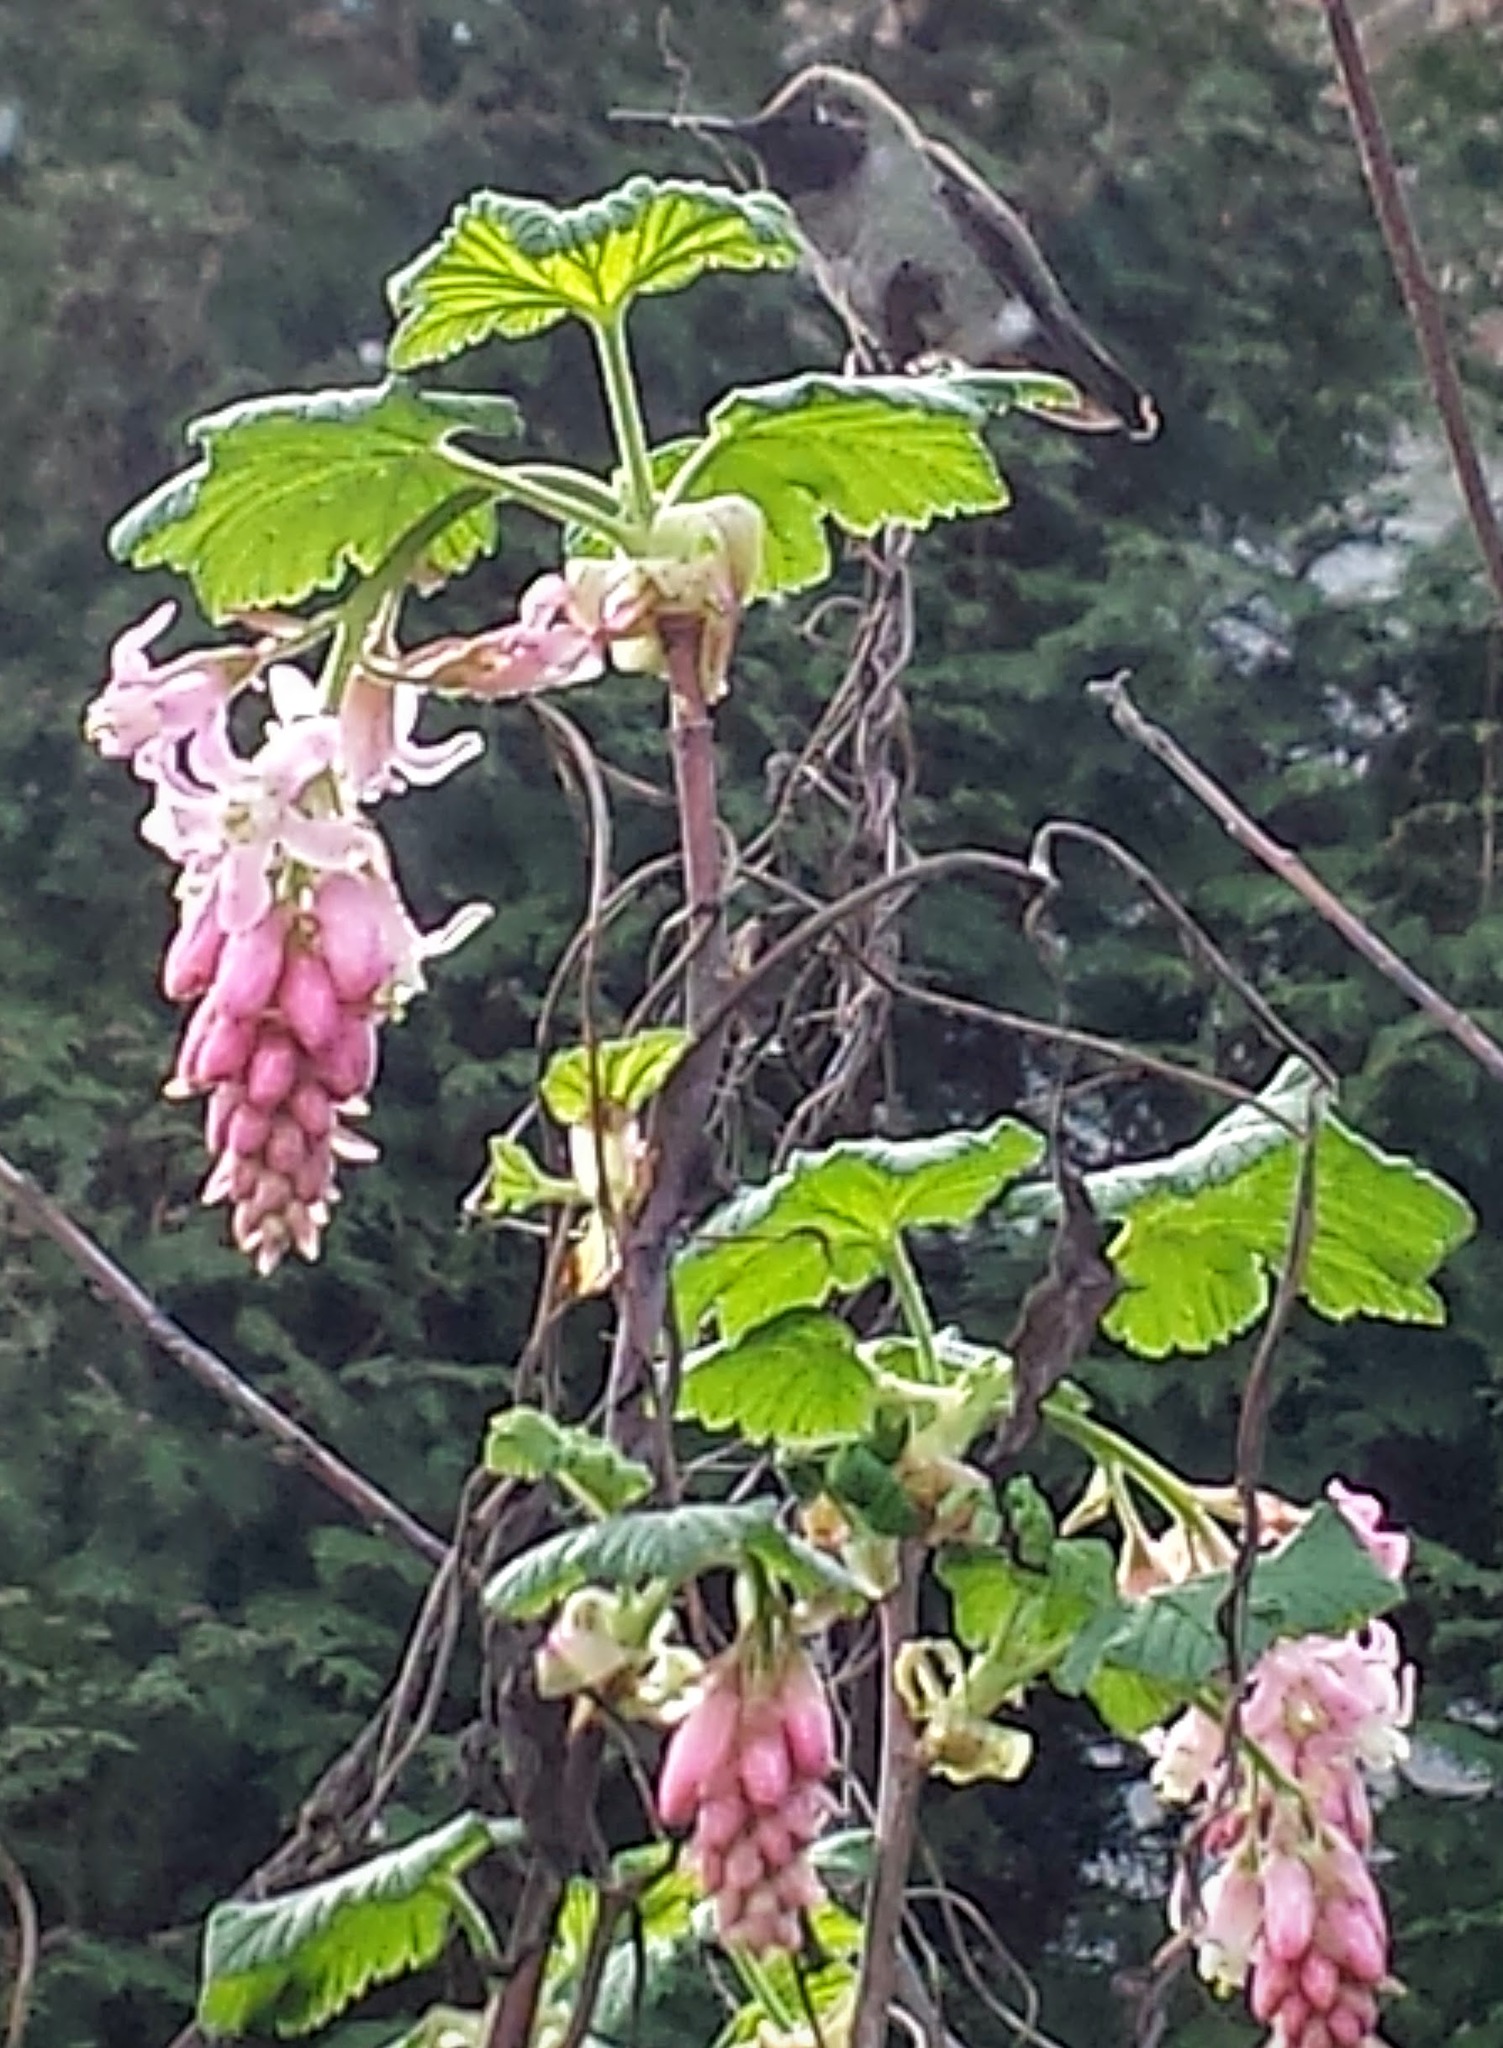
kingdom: Animalia
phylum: Chordata
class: Aves
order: Apodiformes
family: Trochilidae
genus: Calypte
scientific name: Calypte anna
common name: Anna's hummingbird
